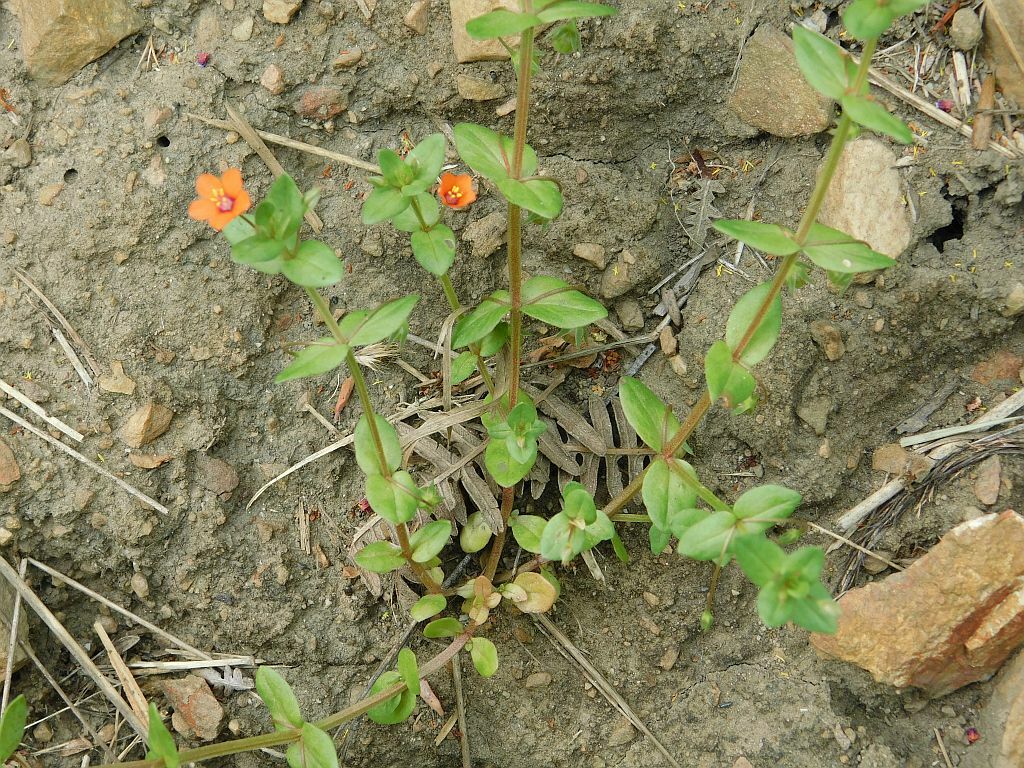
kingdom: Plantae
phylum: Tracheophyta
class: Magnoliopsida
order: Ericales
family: Primulaceae
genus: Lysimachia
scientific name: Lysimachia arvensis
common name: Scarlet pimpernel
